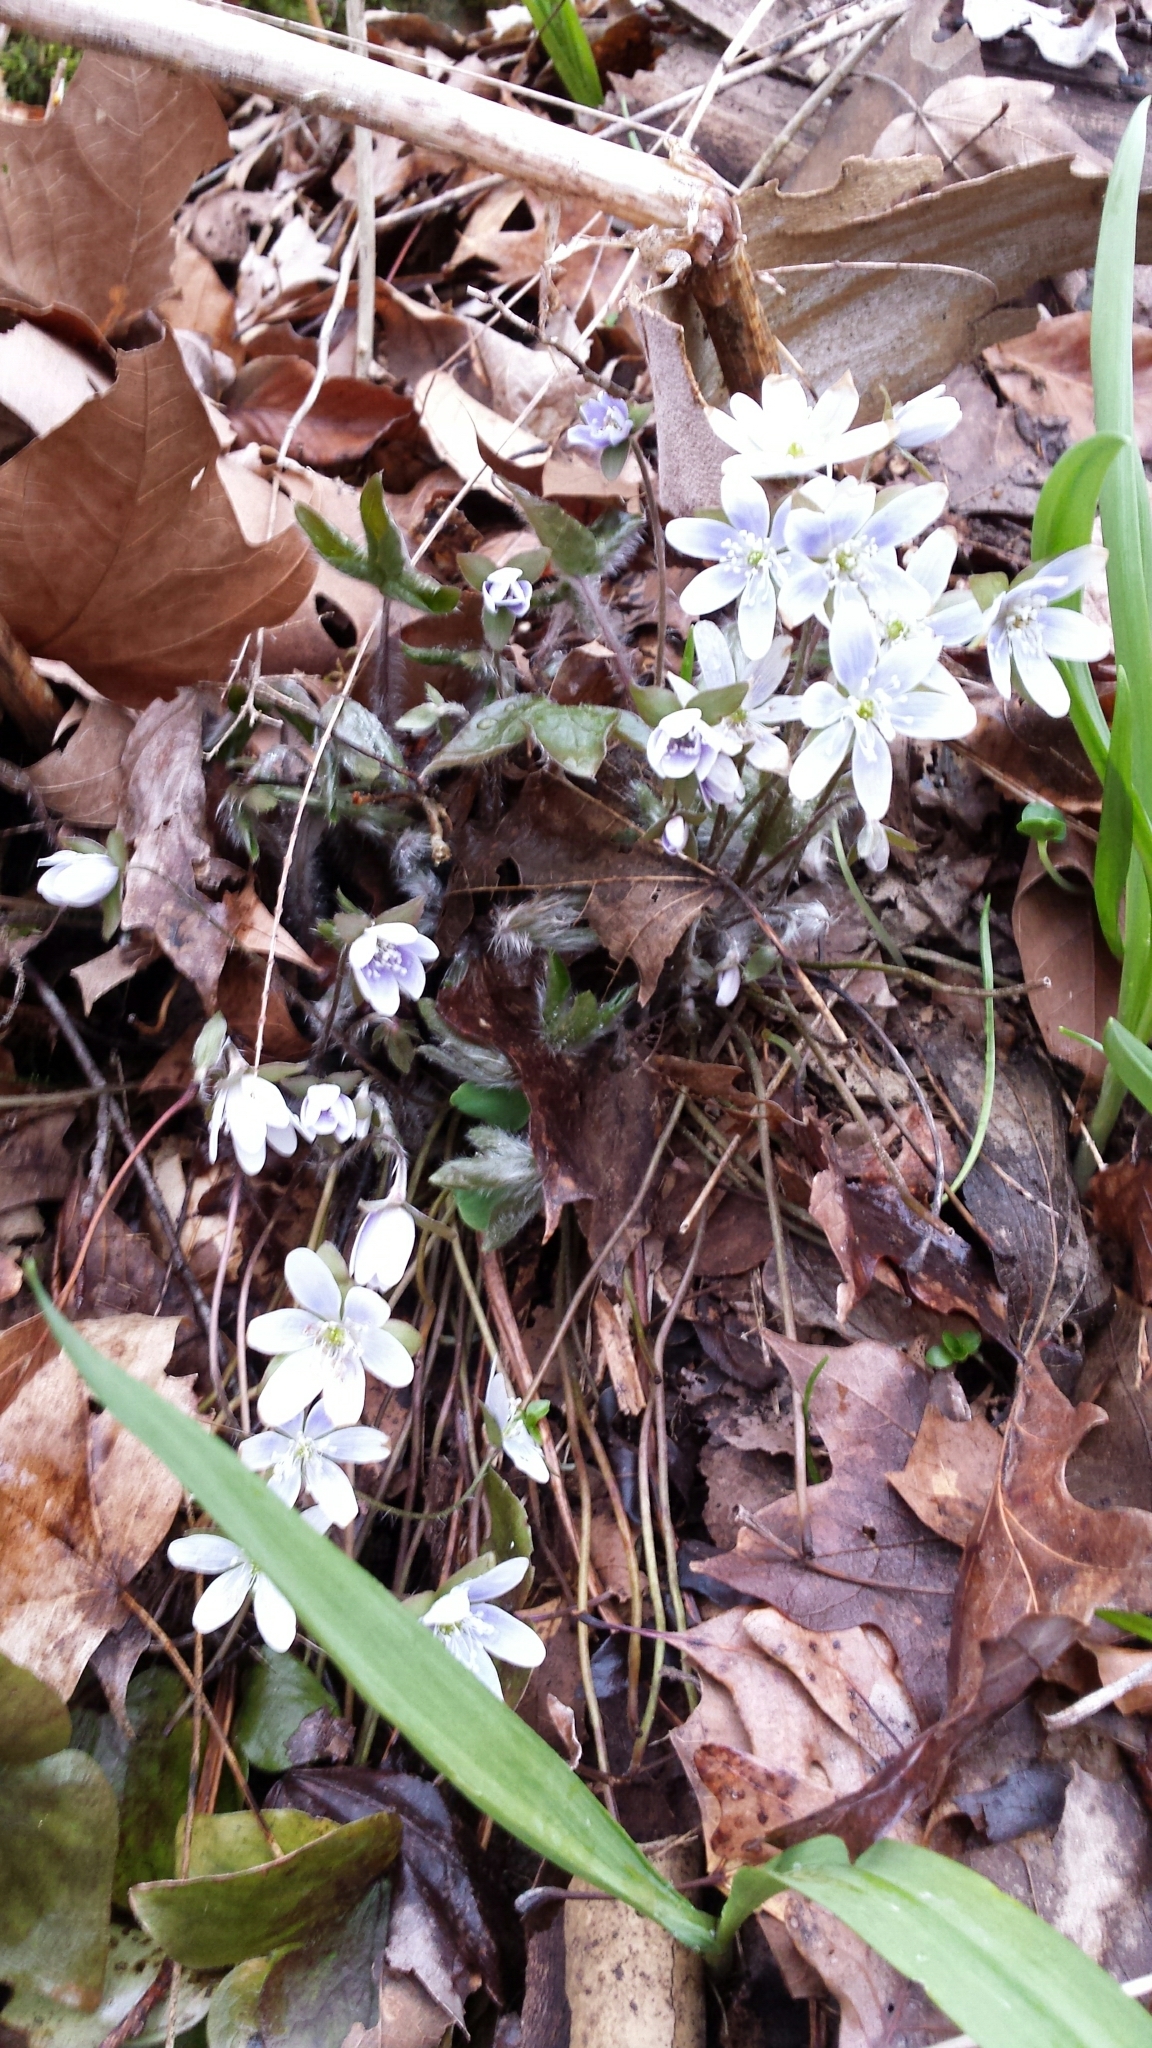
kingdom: Plantae
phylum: Tracheophyta
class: Magnoliopsida
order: Ranunculales
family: Ranunculaceae
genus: Hepatica
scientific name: Hepatica acutiloba
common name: Sharp-lobed hepatica
